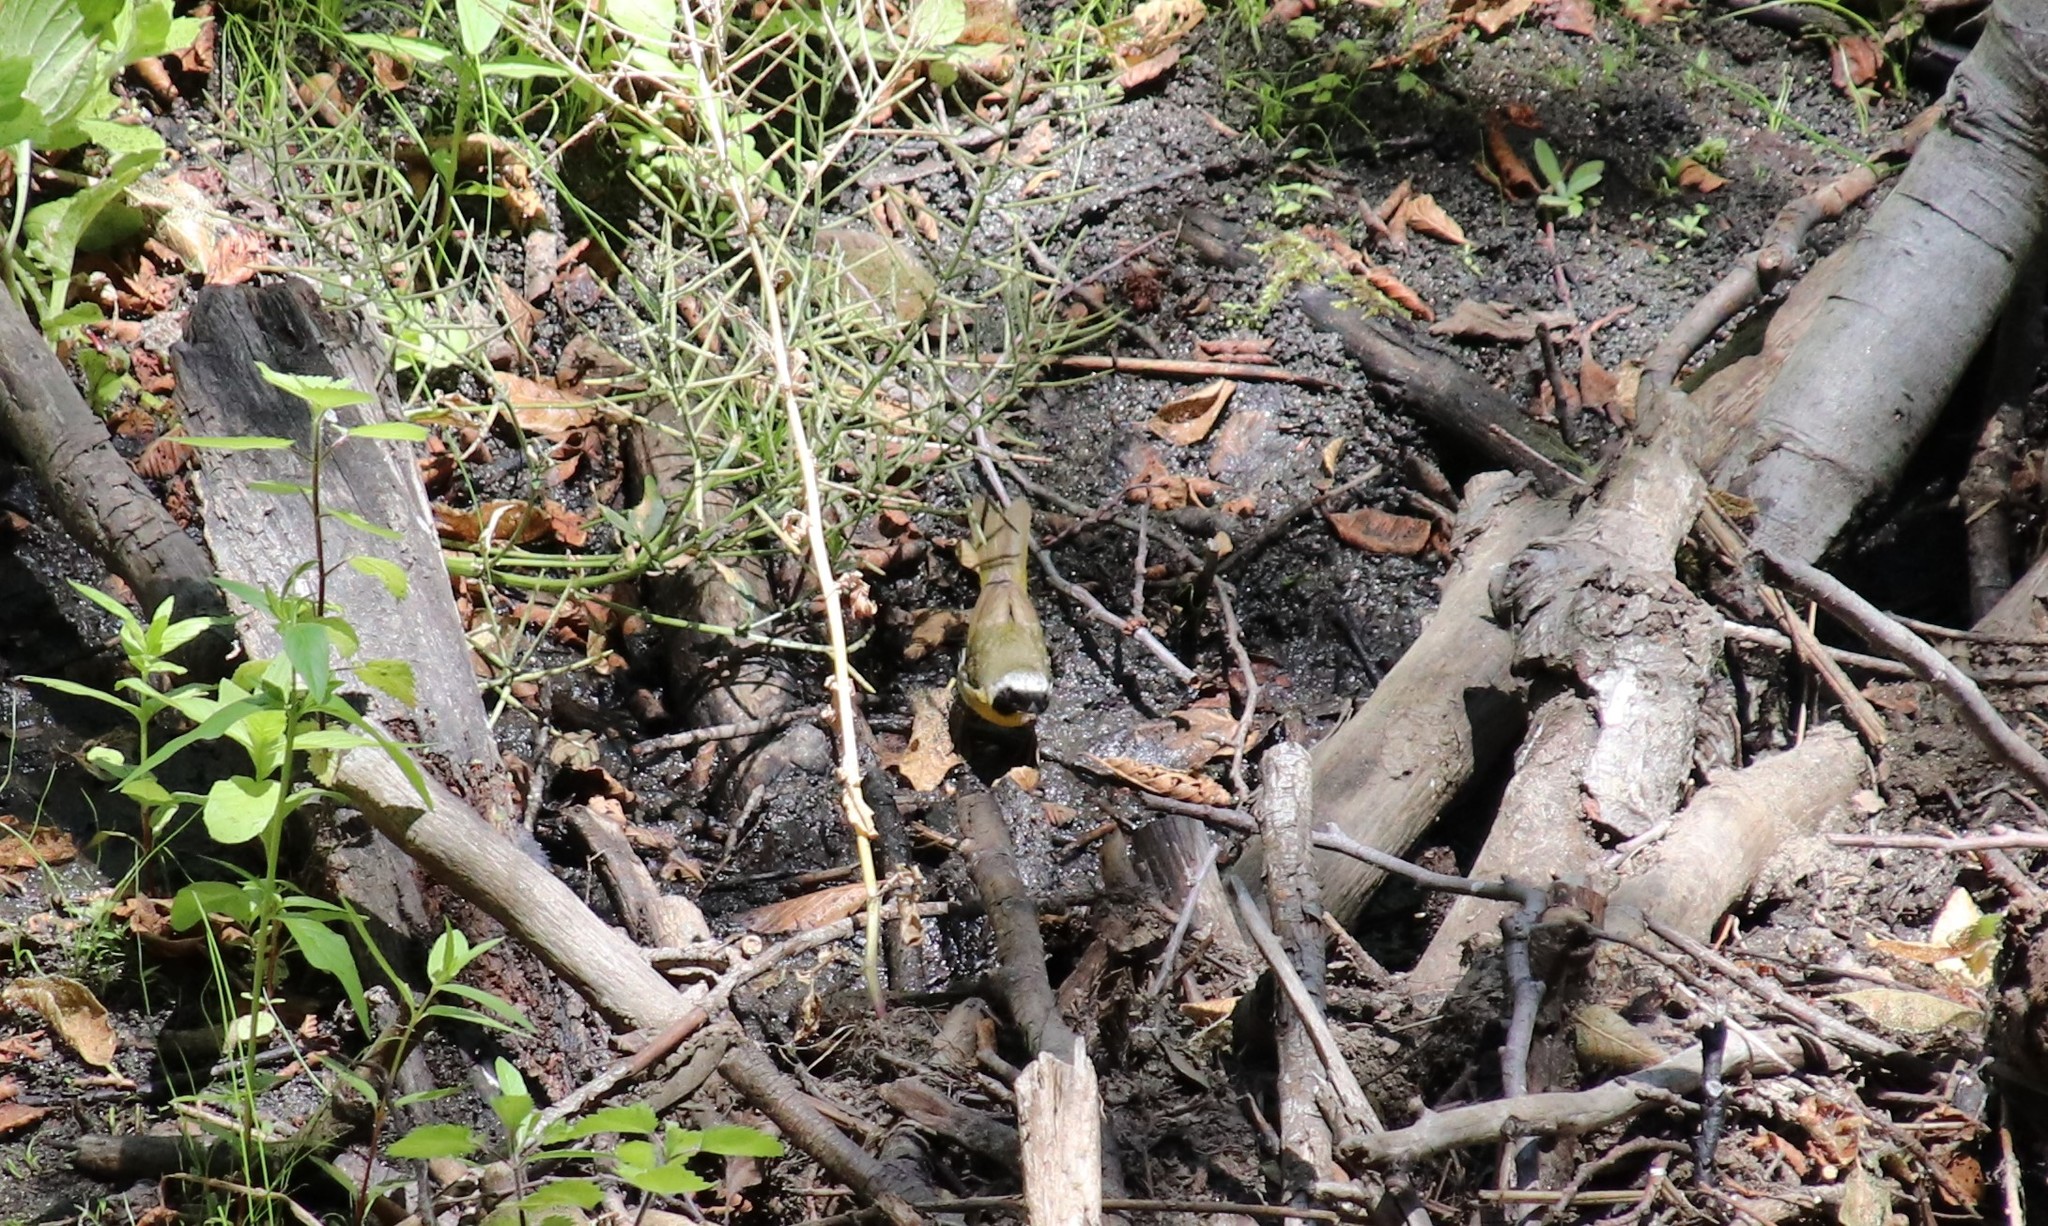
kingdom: Animalia
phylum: Chordata
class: Aves
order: Passeriformes
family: Parulidae
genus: Geothlypis
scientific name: Geothlypis trichas
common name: Common yellowthroat
